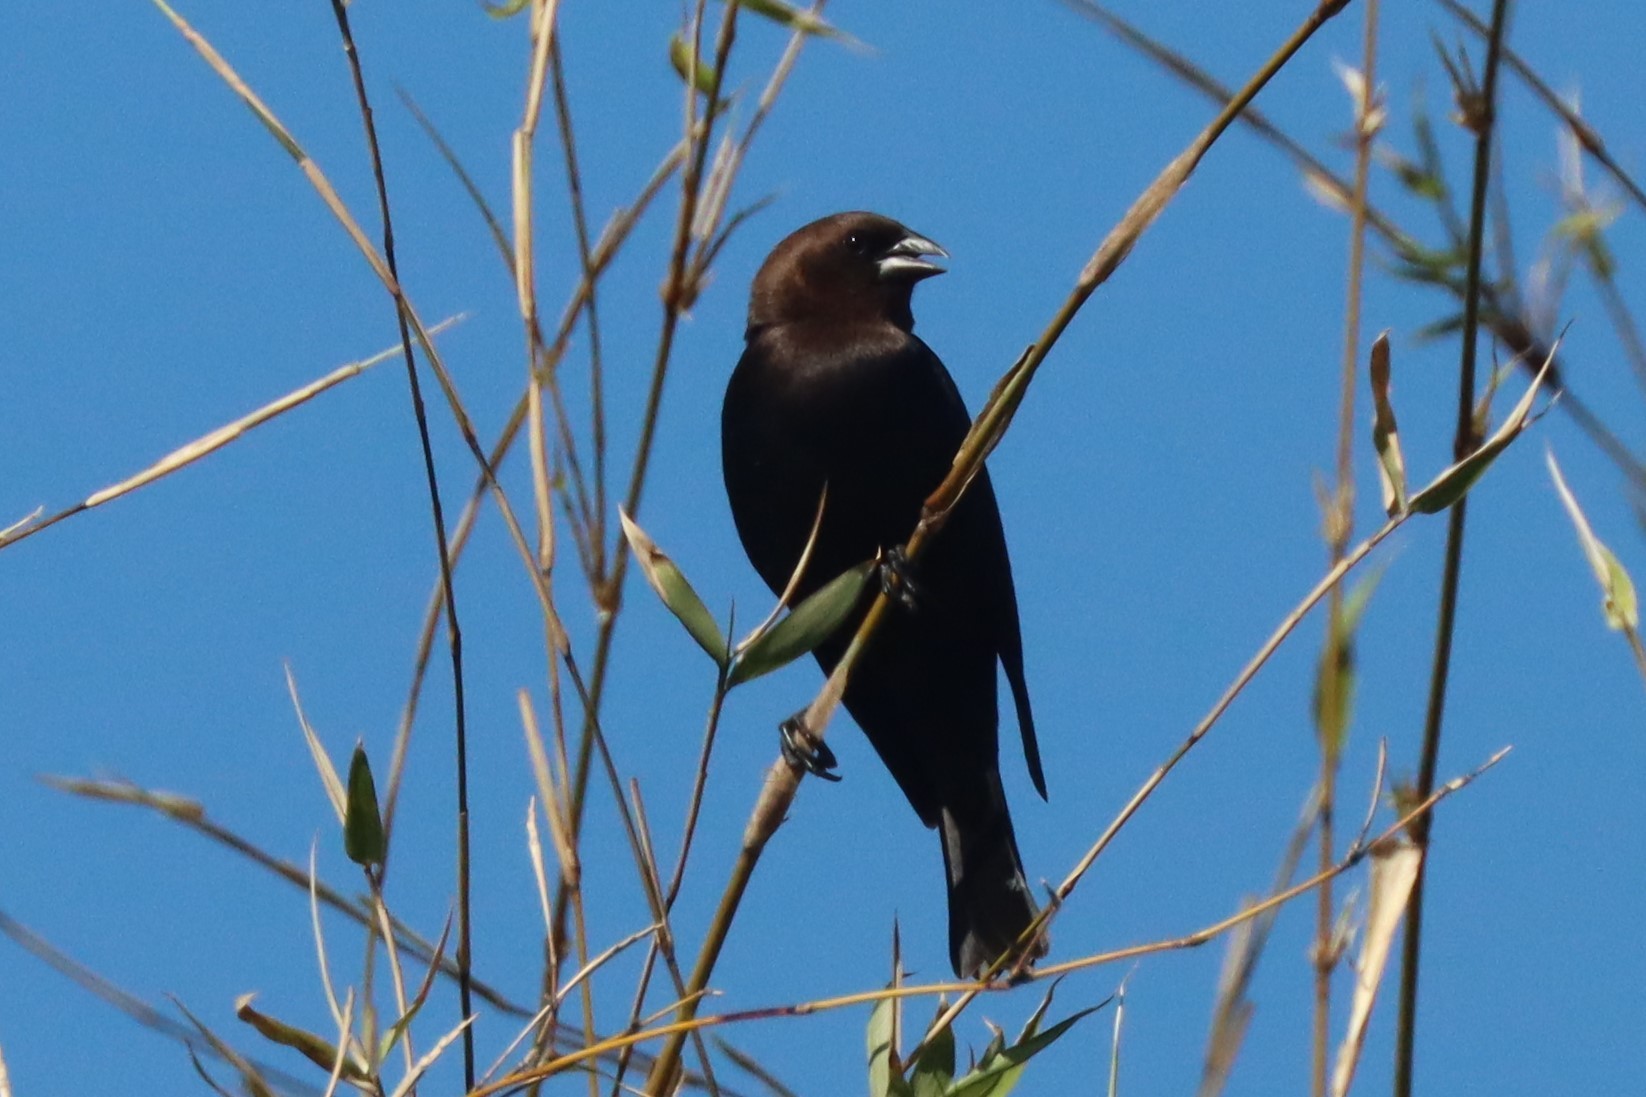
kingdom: Animalia
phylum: Chordata
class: Aves
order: Passeriformes
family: Icteridae
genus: Molothrus
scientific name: Molothrus ater
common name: Brown-headed cowbird
